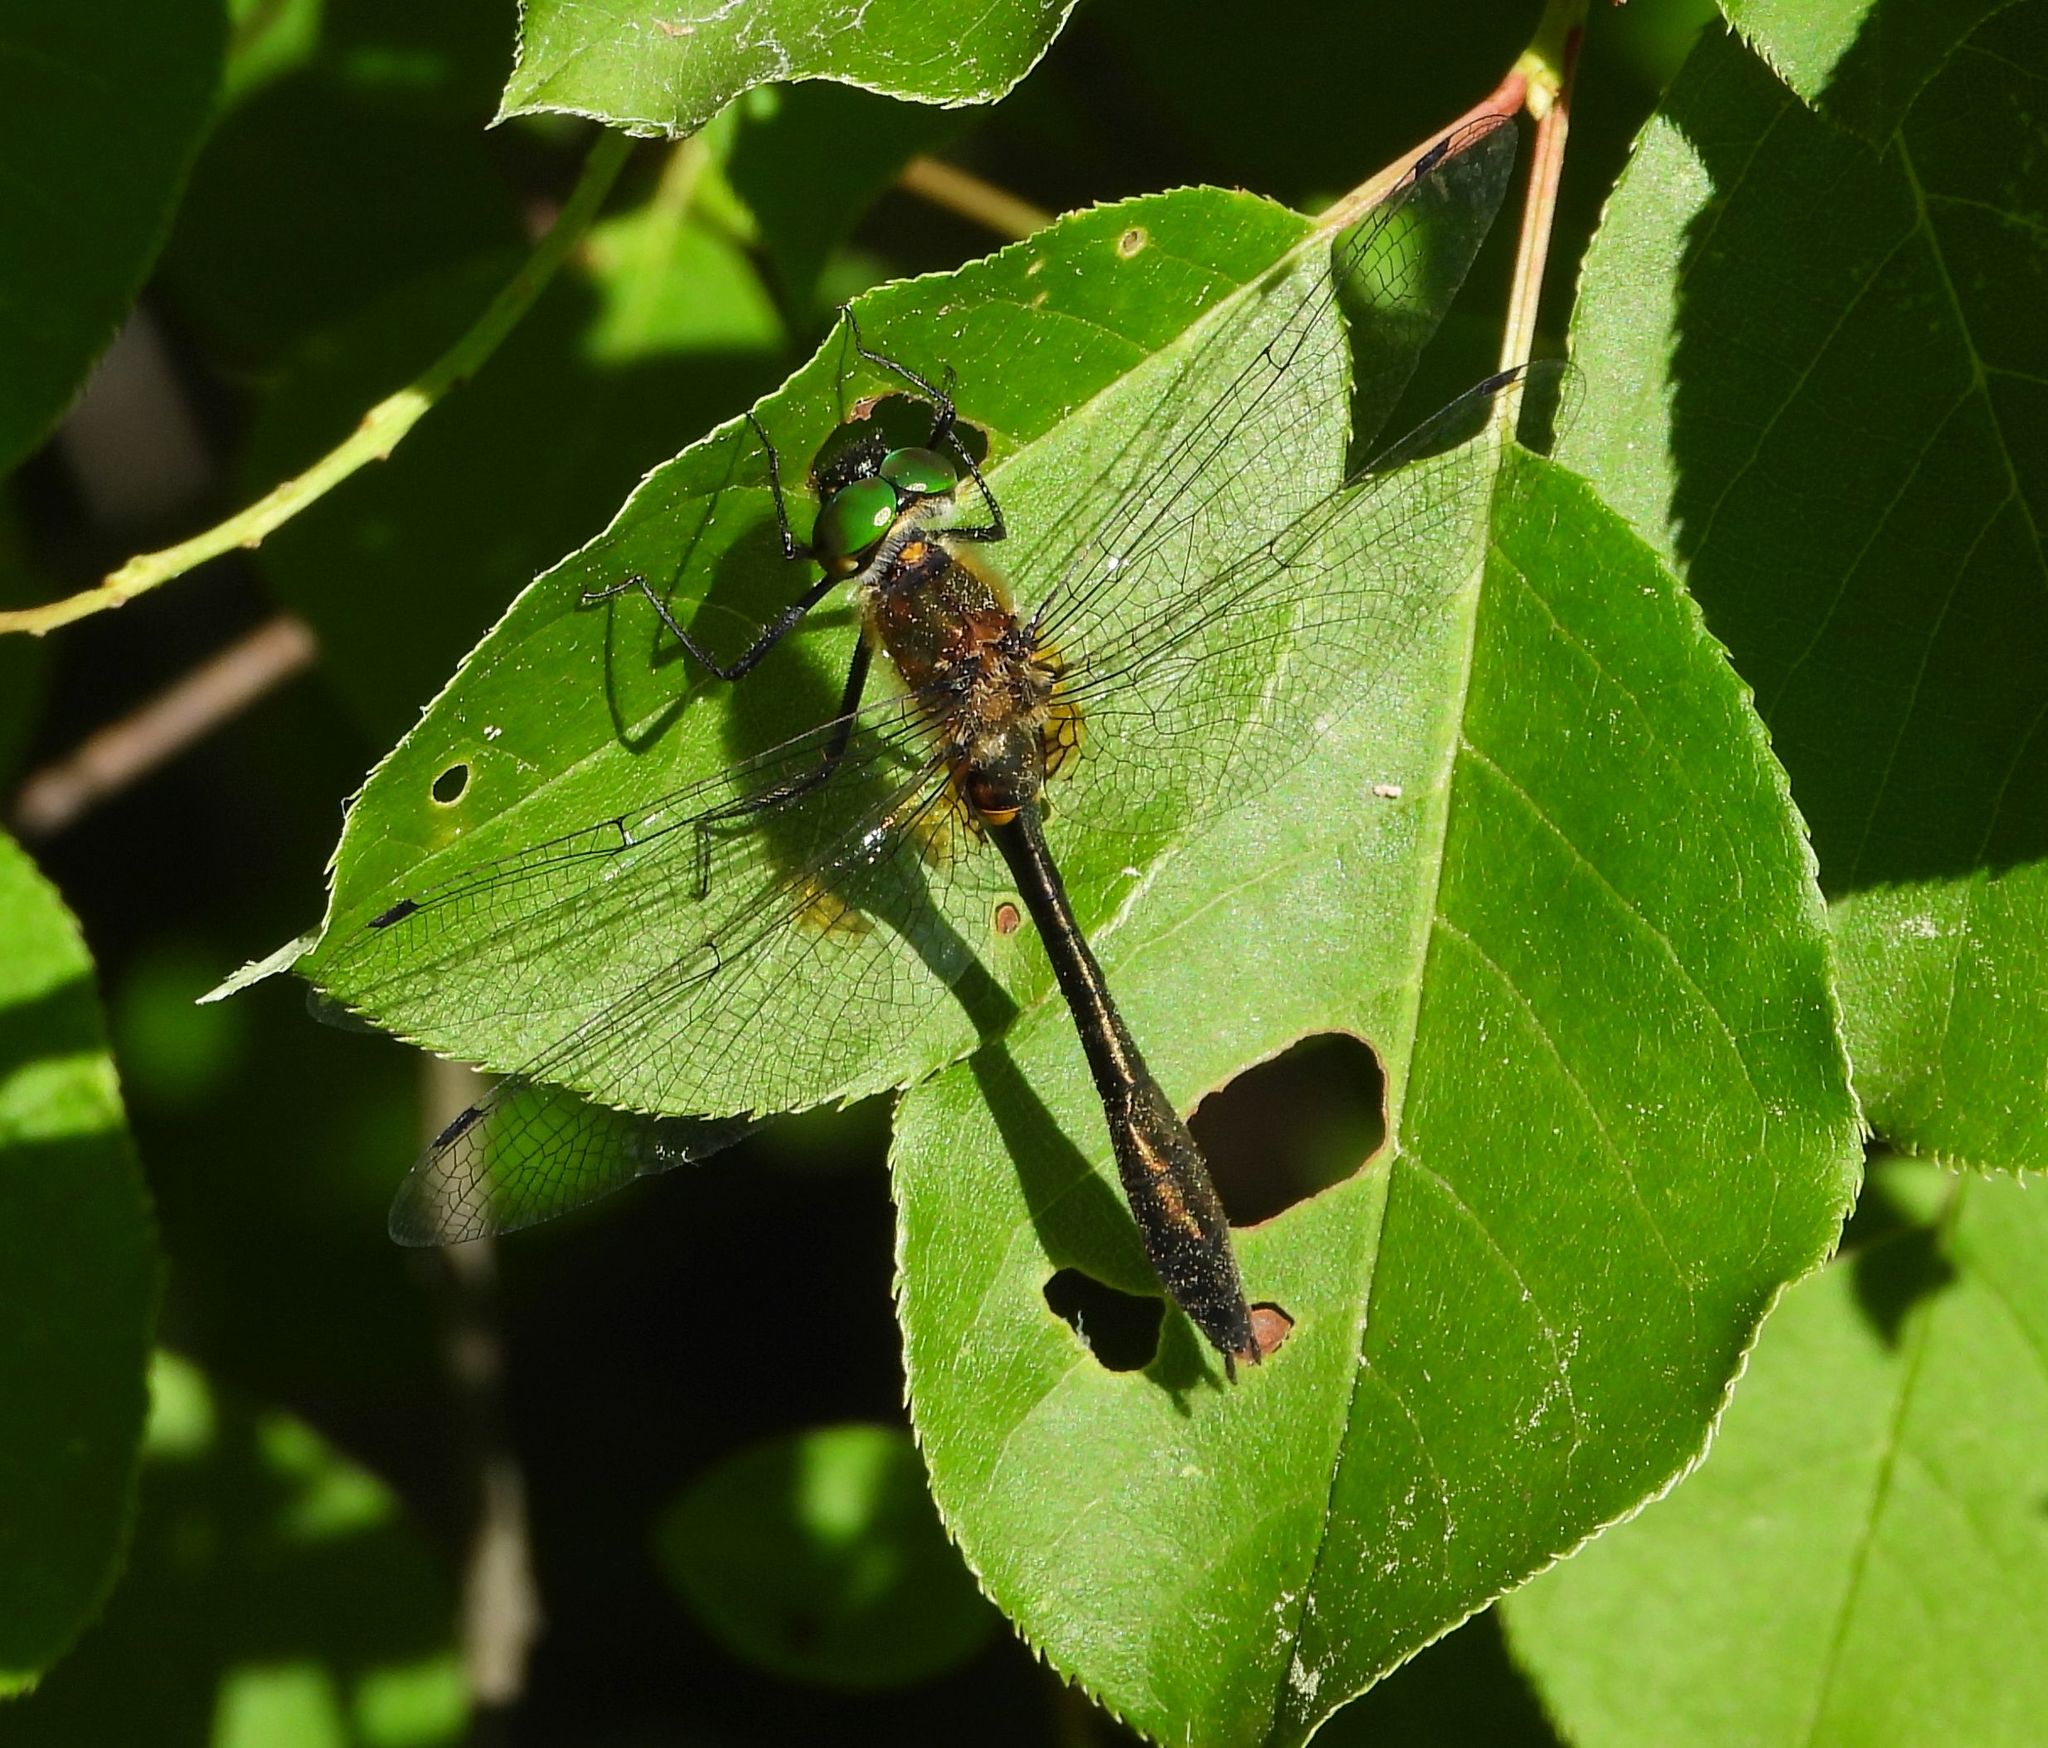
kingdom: Animalia
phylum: Arthropoda
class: Insecta
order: Odonata
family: Corduliidae
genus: Dorocordulia
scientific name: Dorocordulia libera
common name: Racket-tailed emerald
